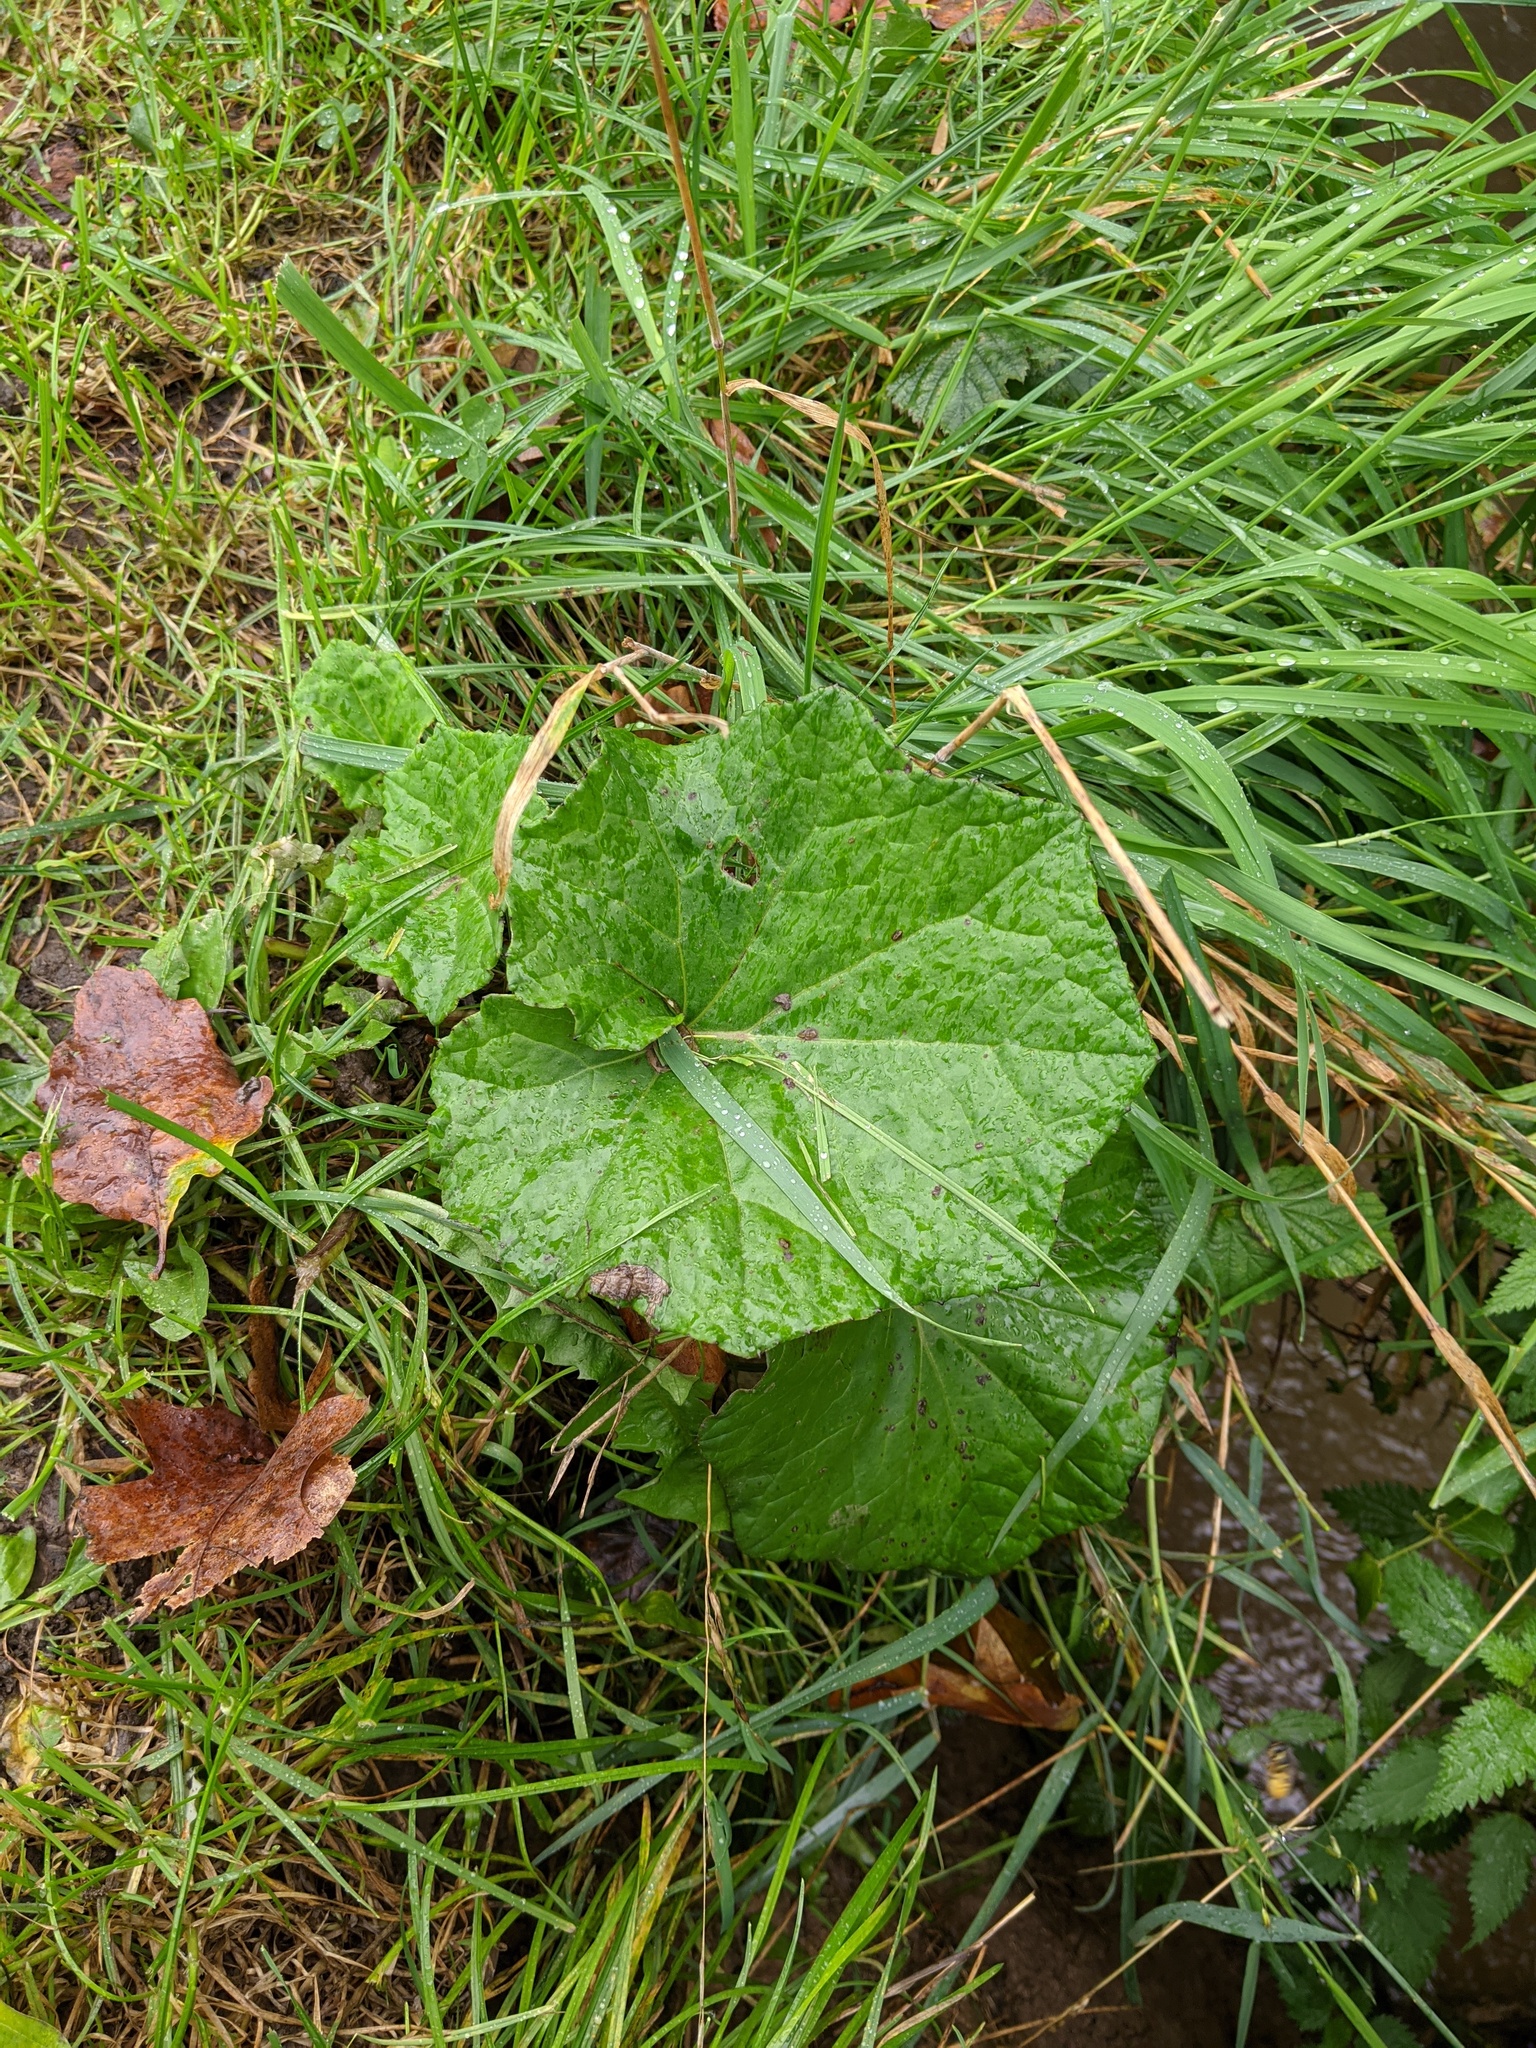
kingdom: Plantae
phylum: Tracheophyta
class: Magnoliopsida
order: Asterales
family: Asteraceae
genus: Tussilago
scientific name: Tussilago farfara
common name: Coltsfoot
